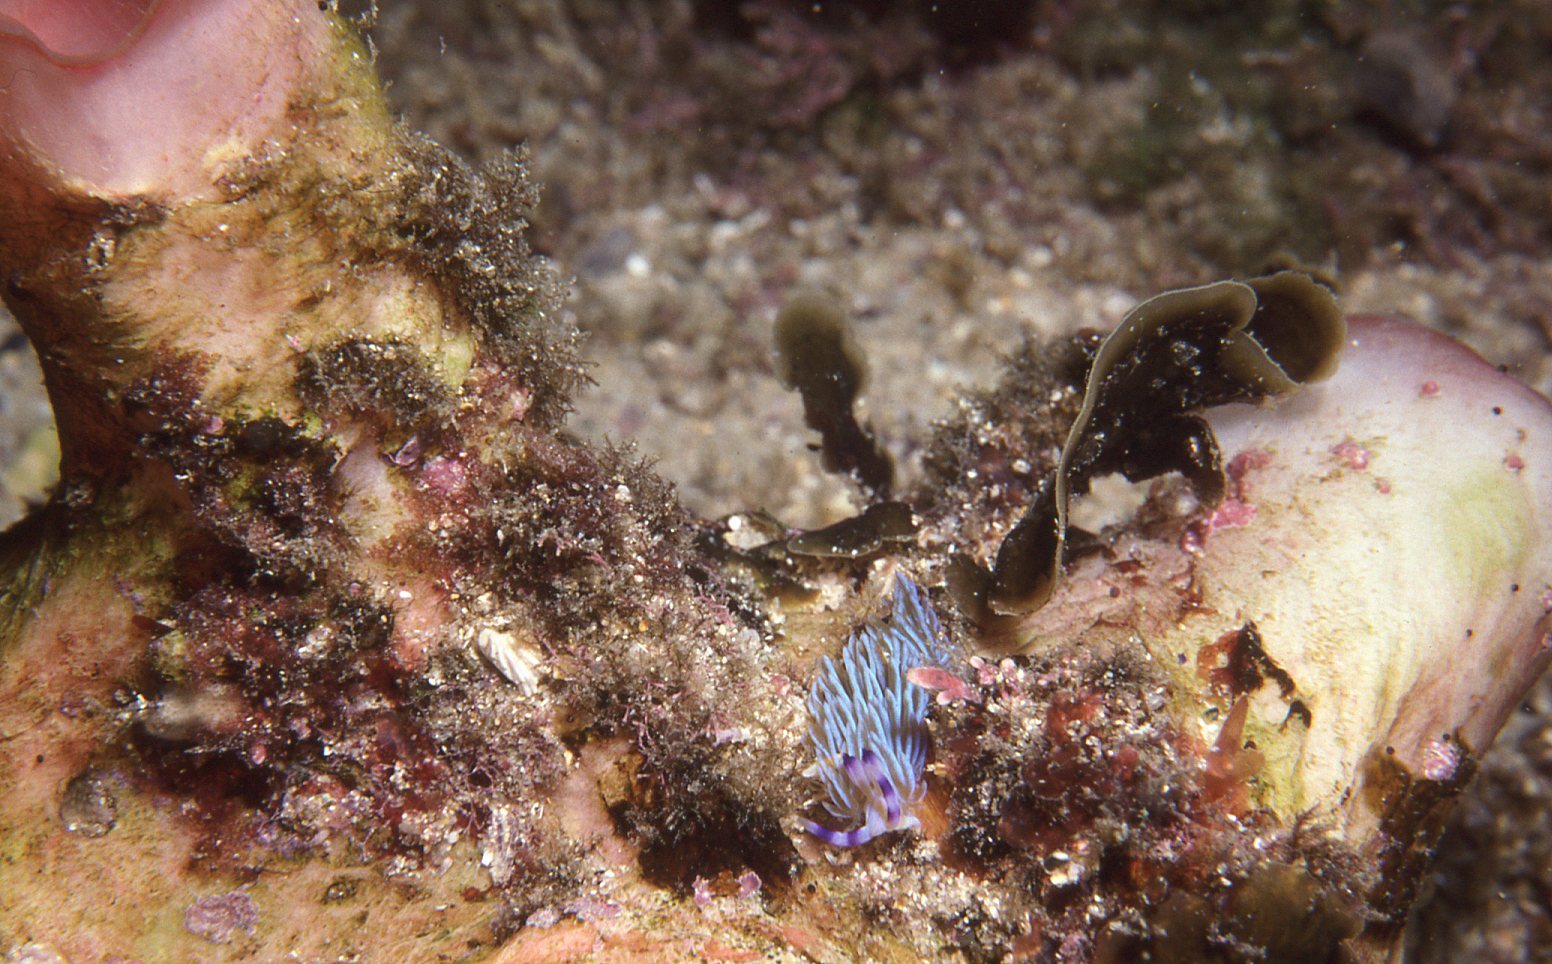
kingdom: Animalia
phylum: Mollusca
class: Gastropoda
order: Nudibranchia
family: Facelinidae
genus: Pteraeolidia
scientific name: Pteraeolidia ianthina
